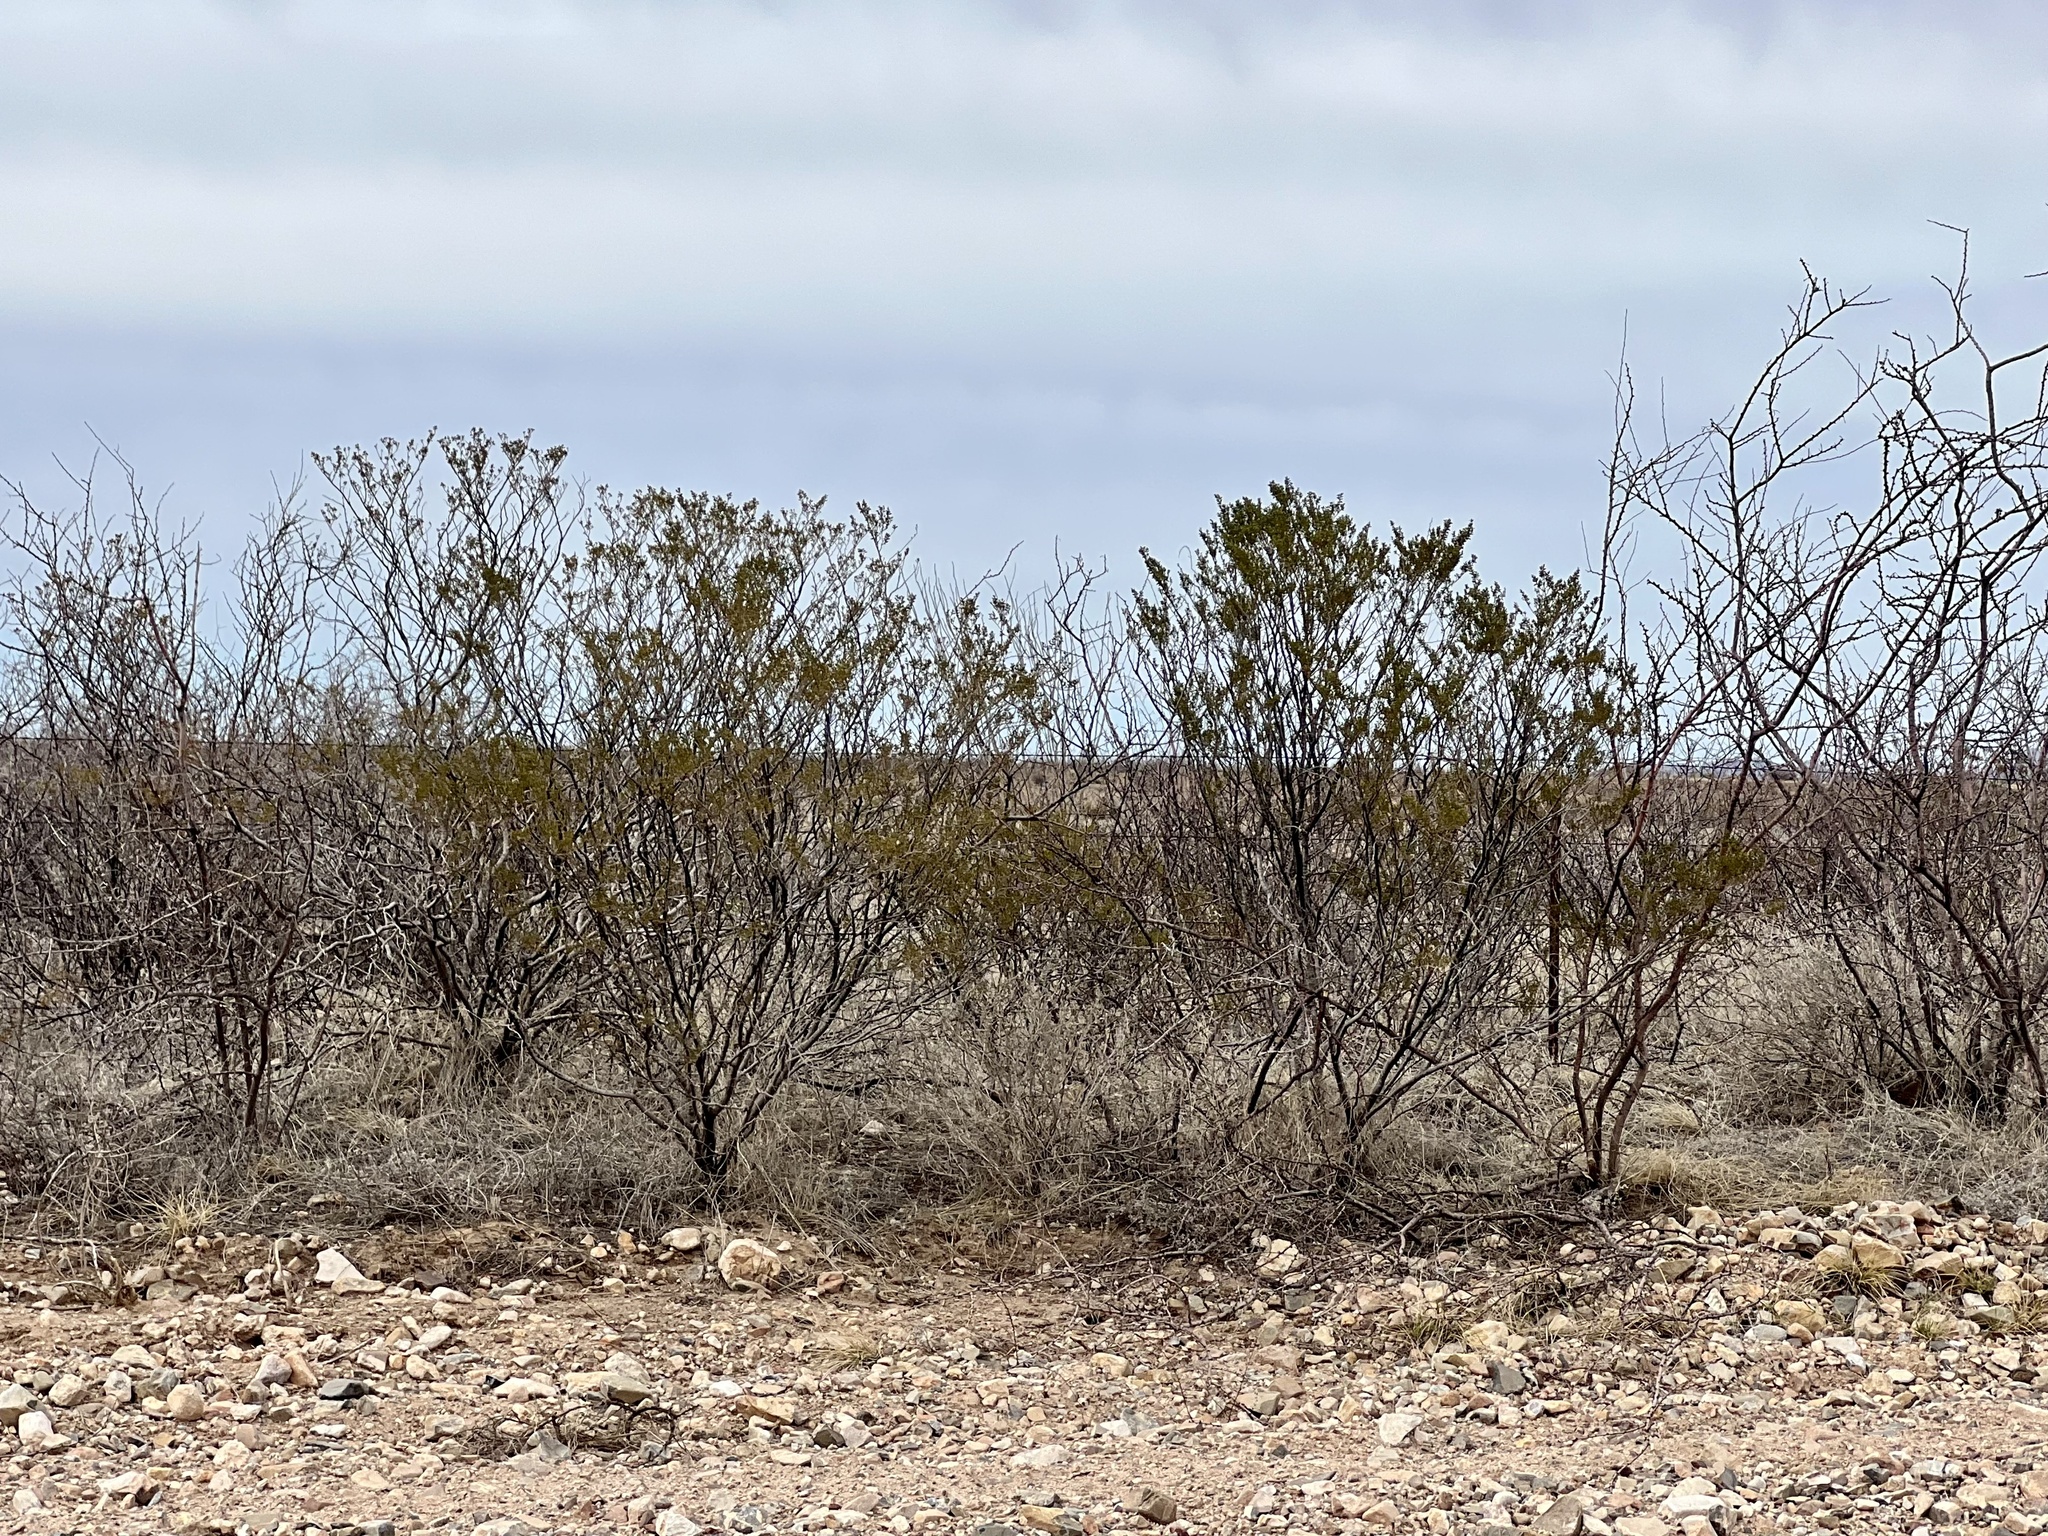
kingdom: Plantae
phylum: Tracheophyta
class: Magnoliopsida
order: Zygophyllales
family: Zygophyllaceae
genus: Larrea
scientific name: Larrea tridentata
